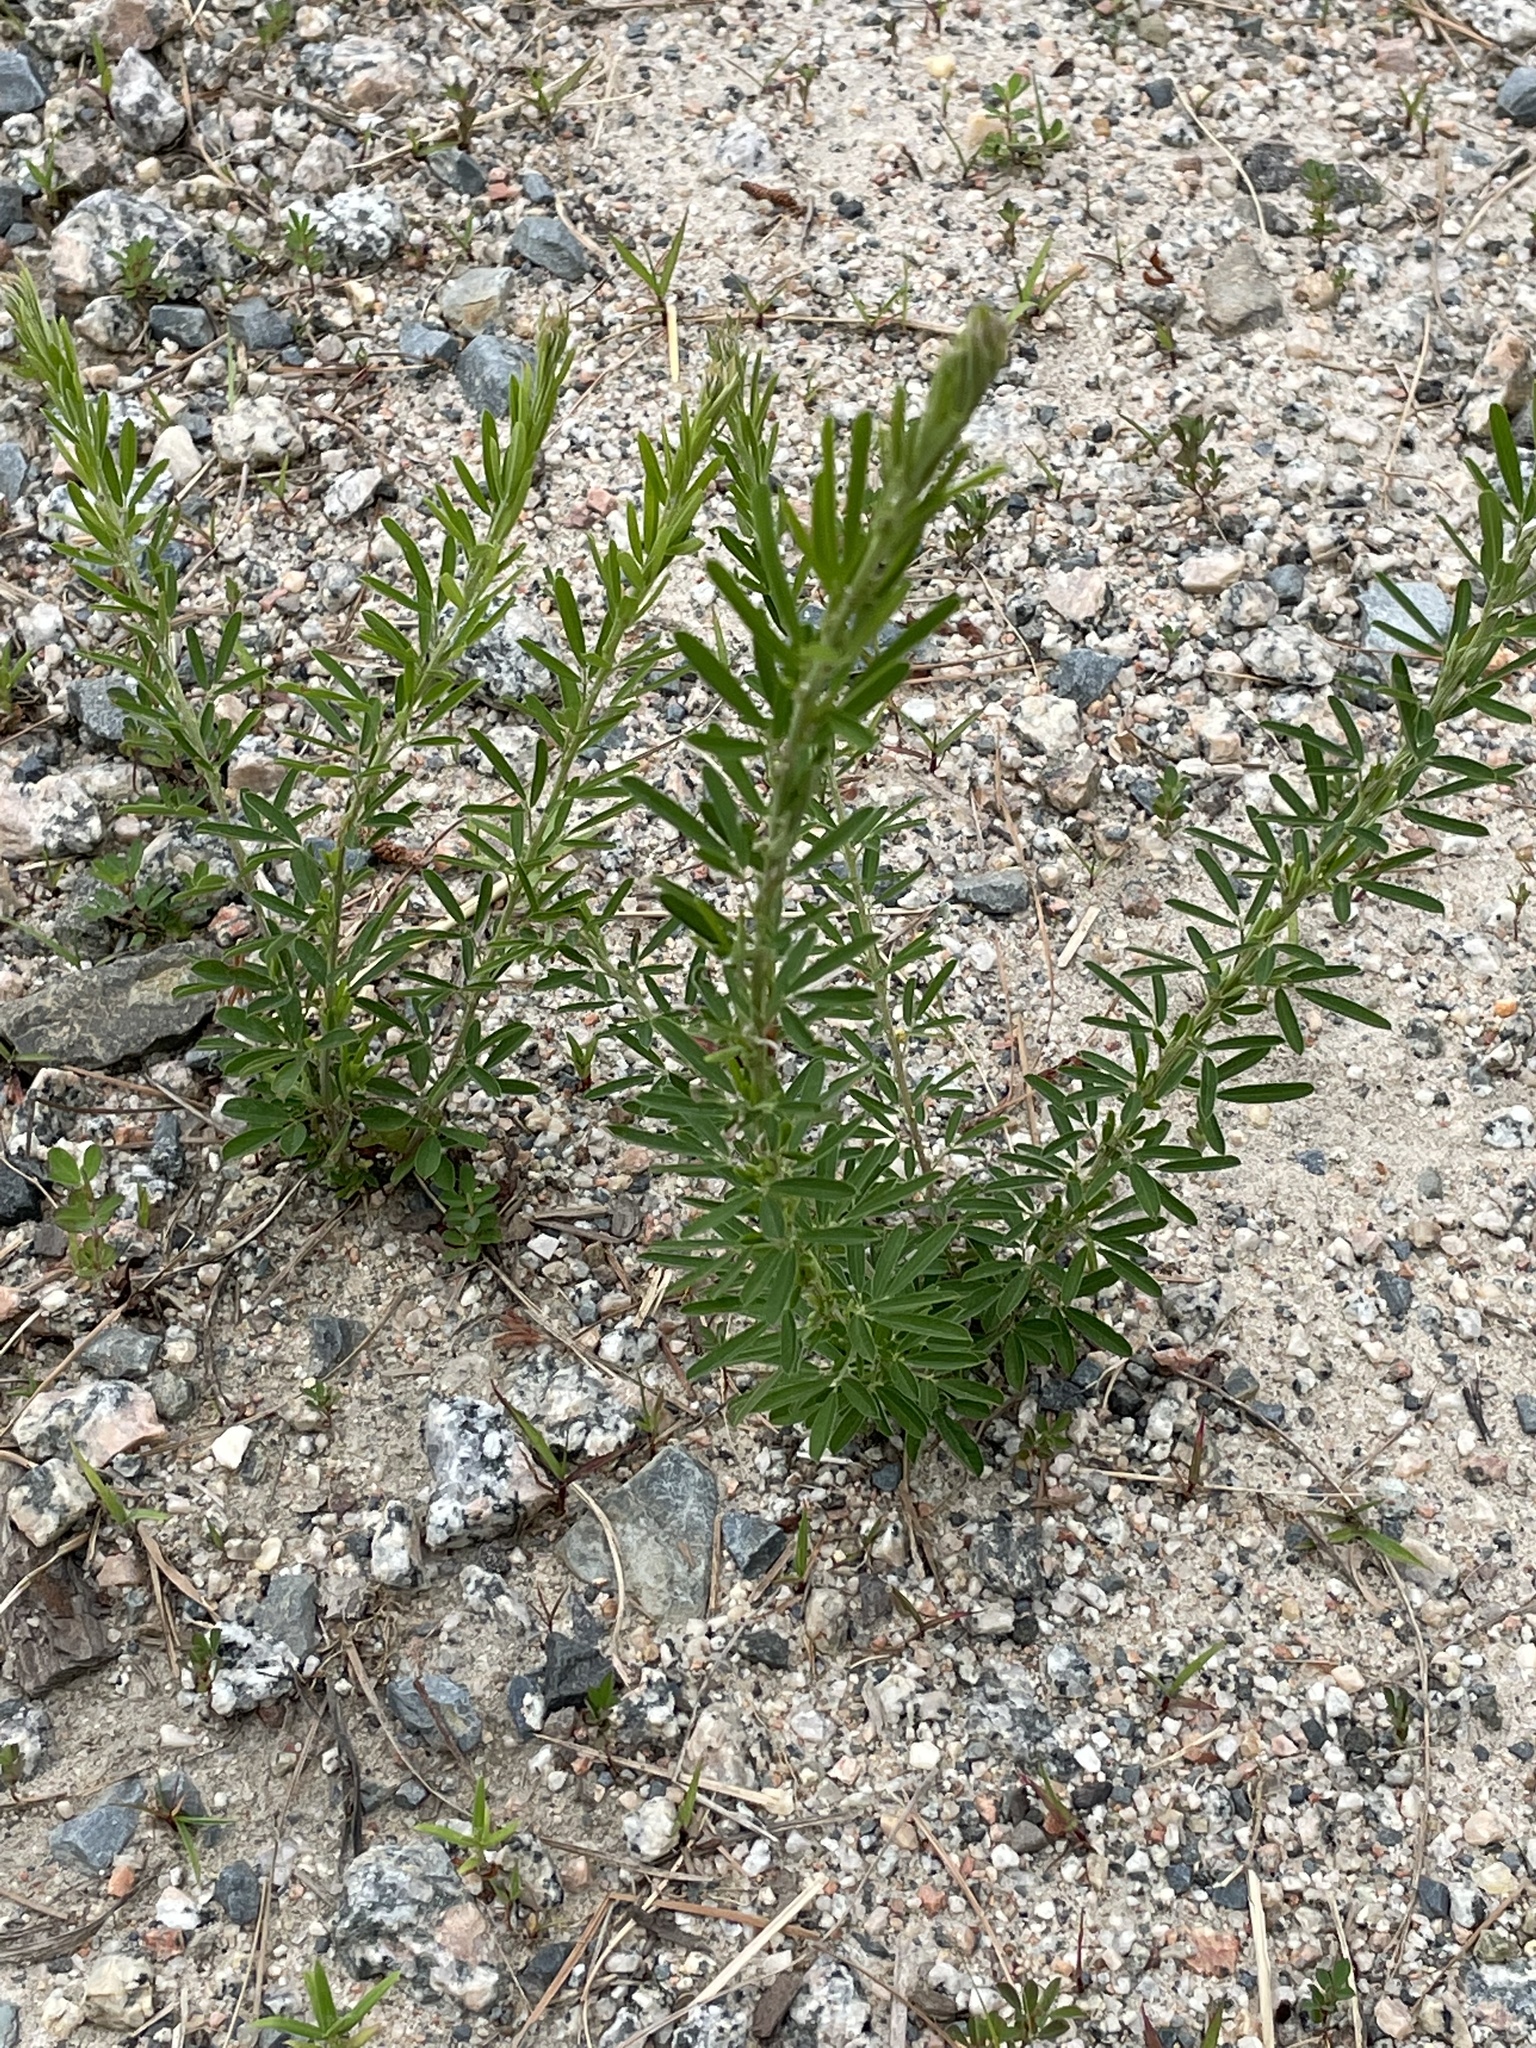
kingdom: Plantae
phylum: Tracheophyta
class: Magnoliopsida
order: Fabales
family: Fabaceae
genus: Lespedeza
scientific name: Lespedeza cuneata
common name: Chinese bush-clover
